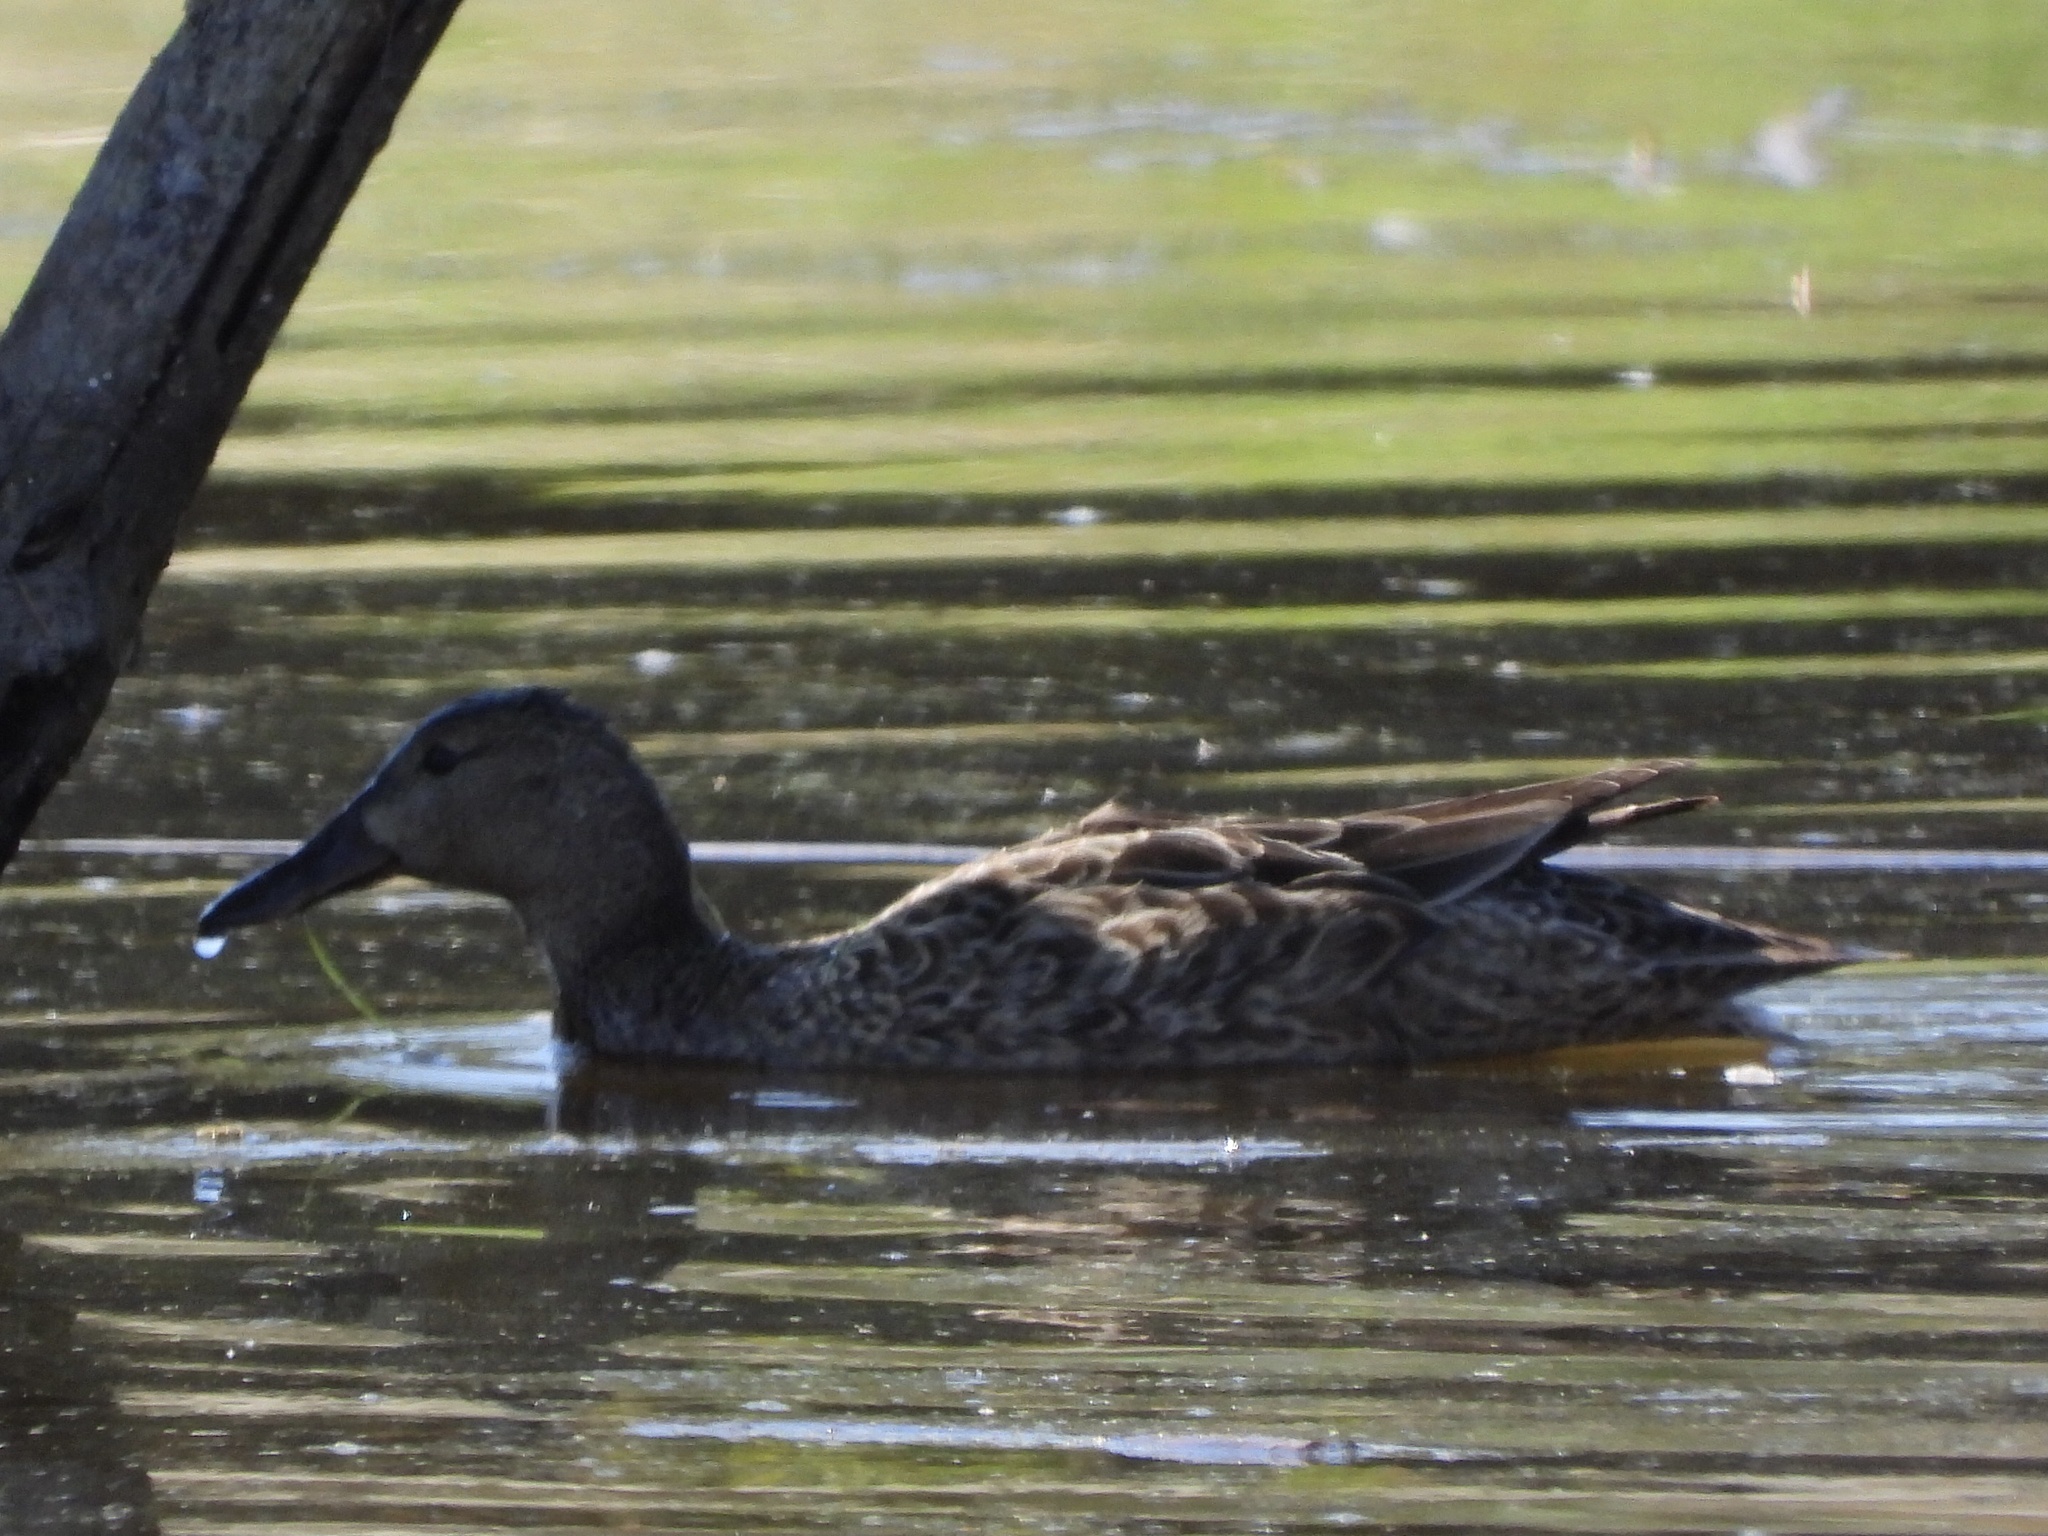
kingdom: Animalia
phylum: Chordata
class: Aves
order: Anseriformes
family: Anatidae
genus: Spatula
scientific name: Spatula cyanoptera
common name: Cinnamon teal
